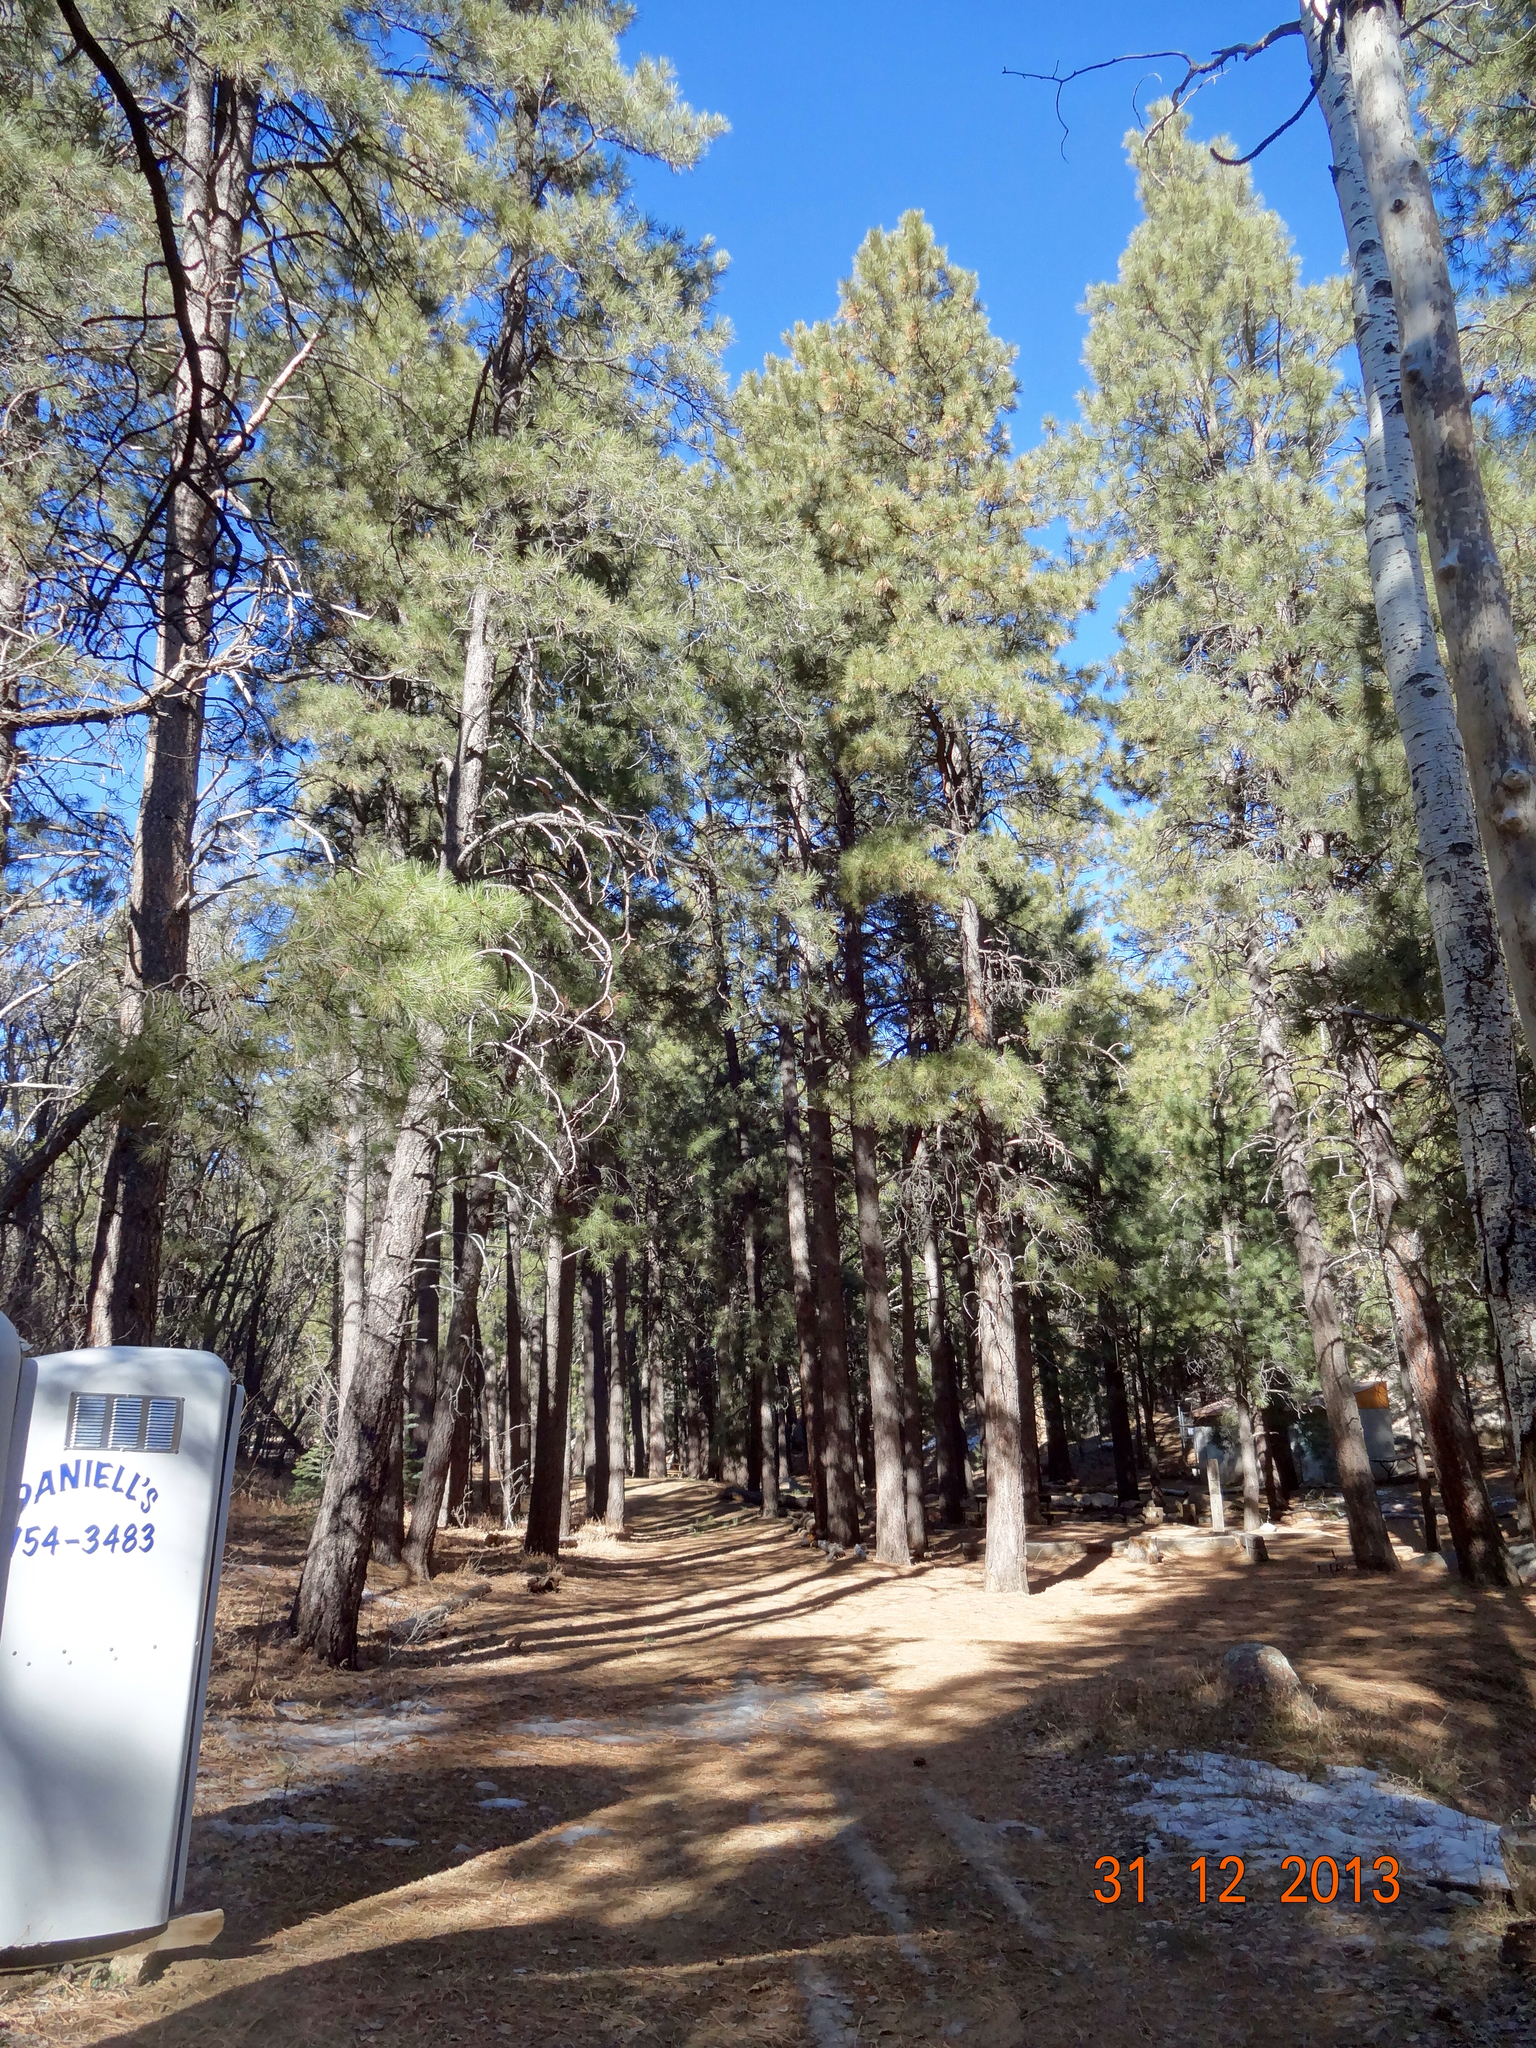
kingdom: Plantae
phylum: Tracheophyta
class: Pinopsida
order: Pinales
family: Pinaceae
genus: Pinus
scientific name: Pinus ponderosa
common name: Western yellow-pine
